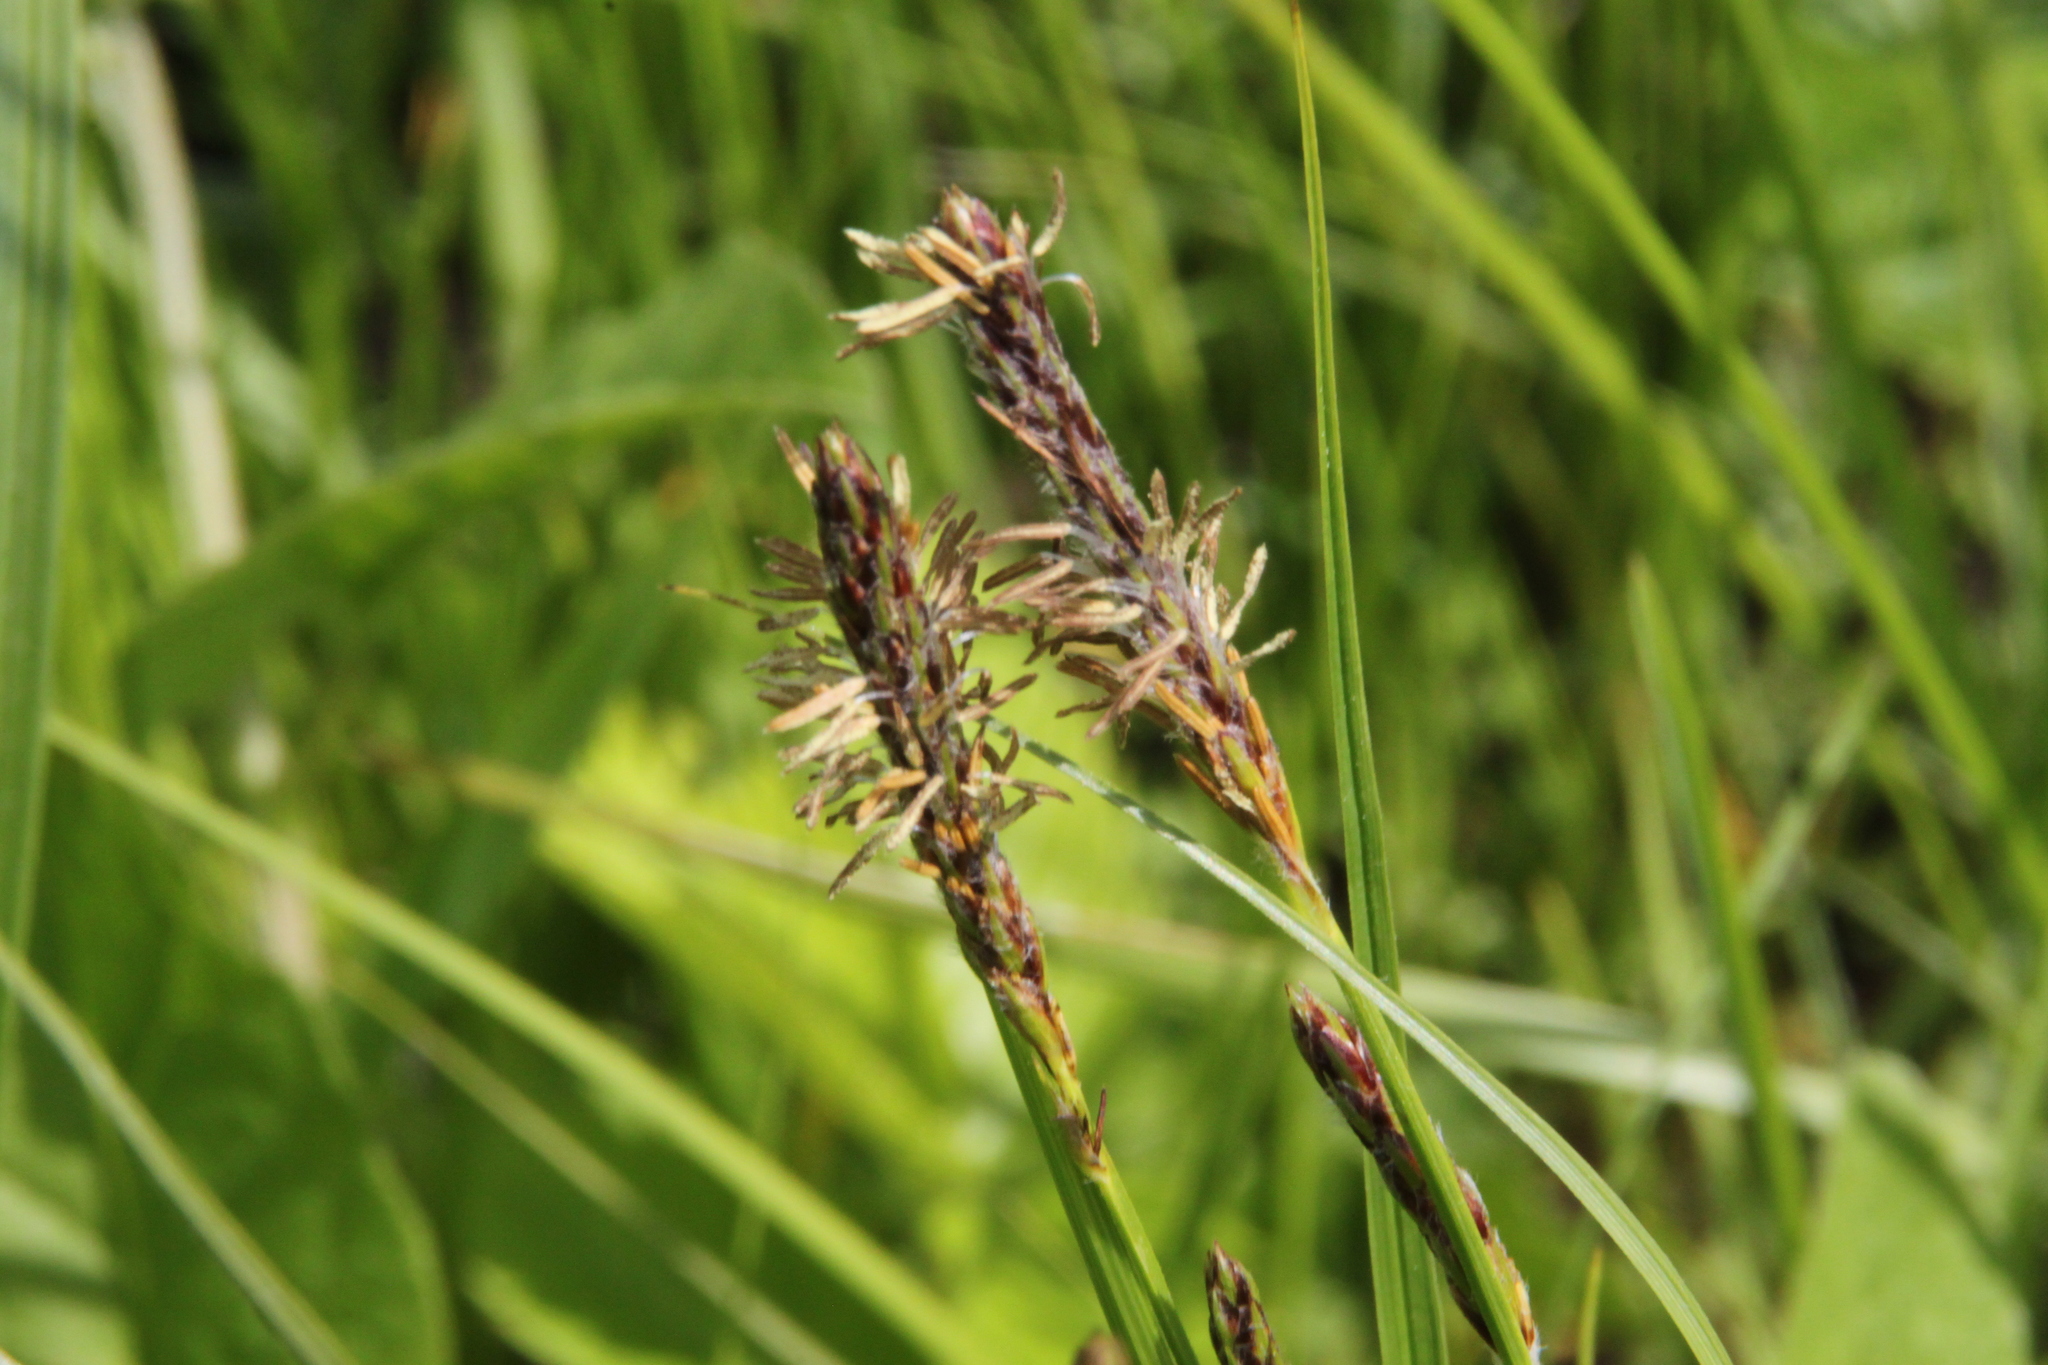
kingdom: Plantae
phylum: Tracheophyta
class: Liliopsida
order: Poales
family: Cyperaceae
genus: Carex
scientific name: Carex hirta
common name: Hairy sedge
